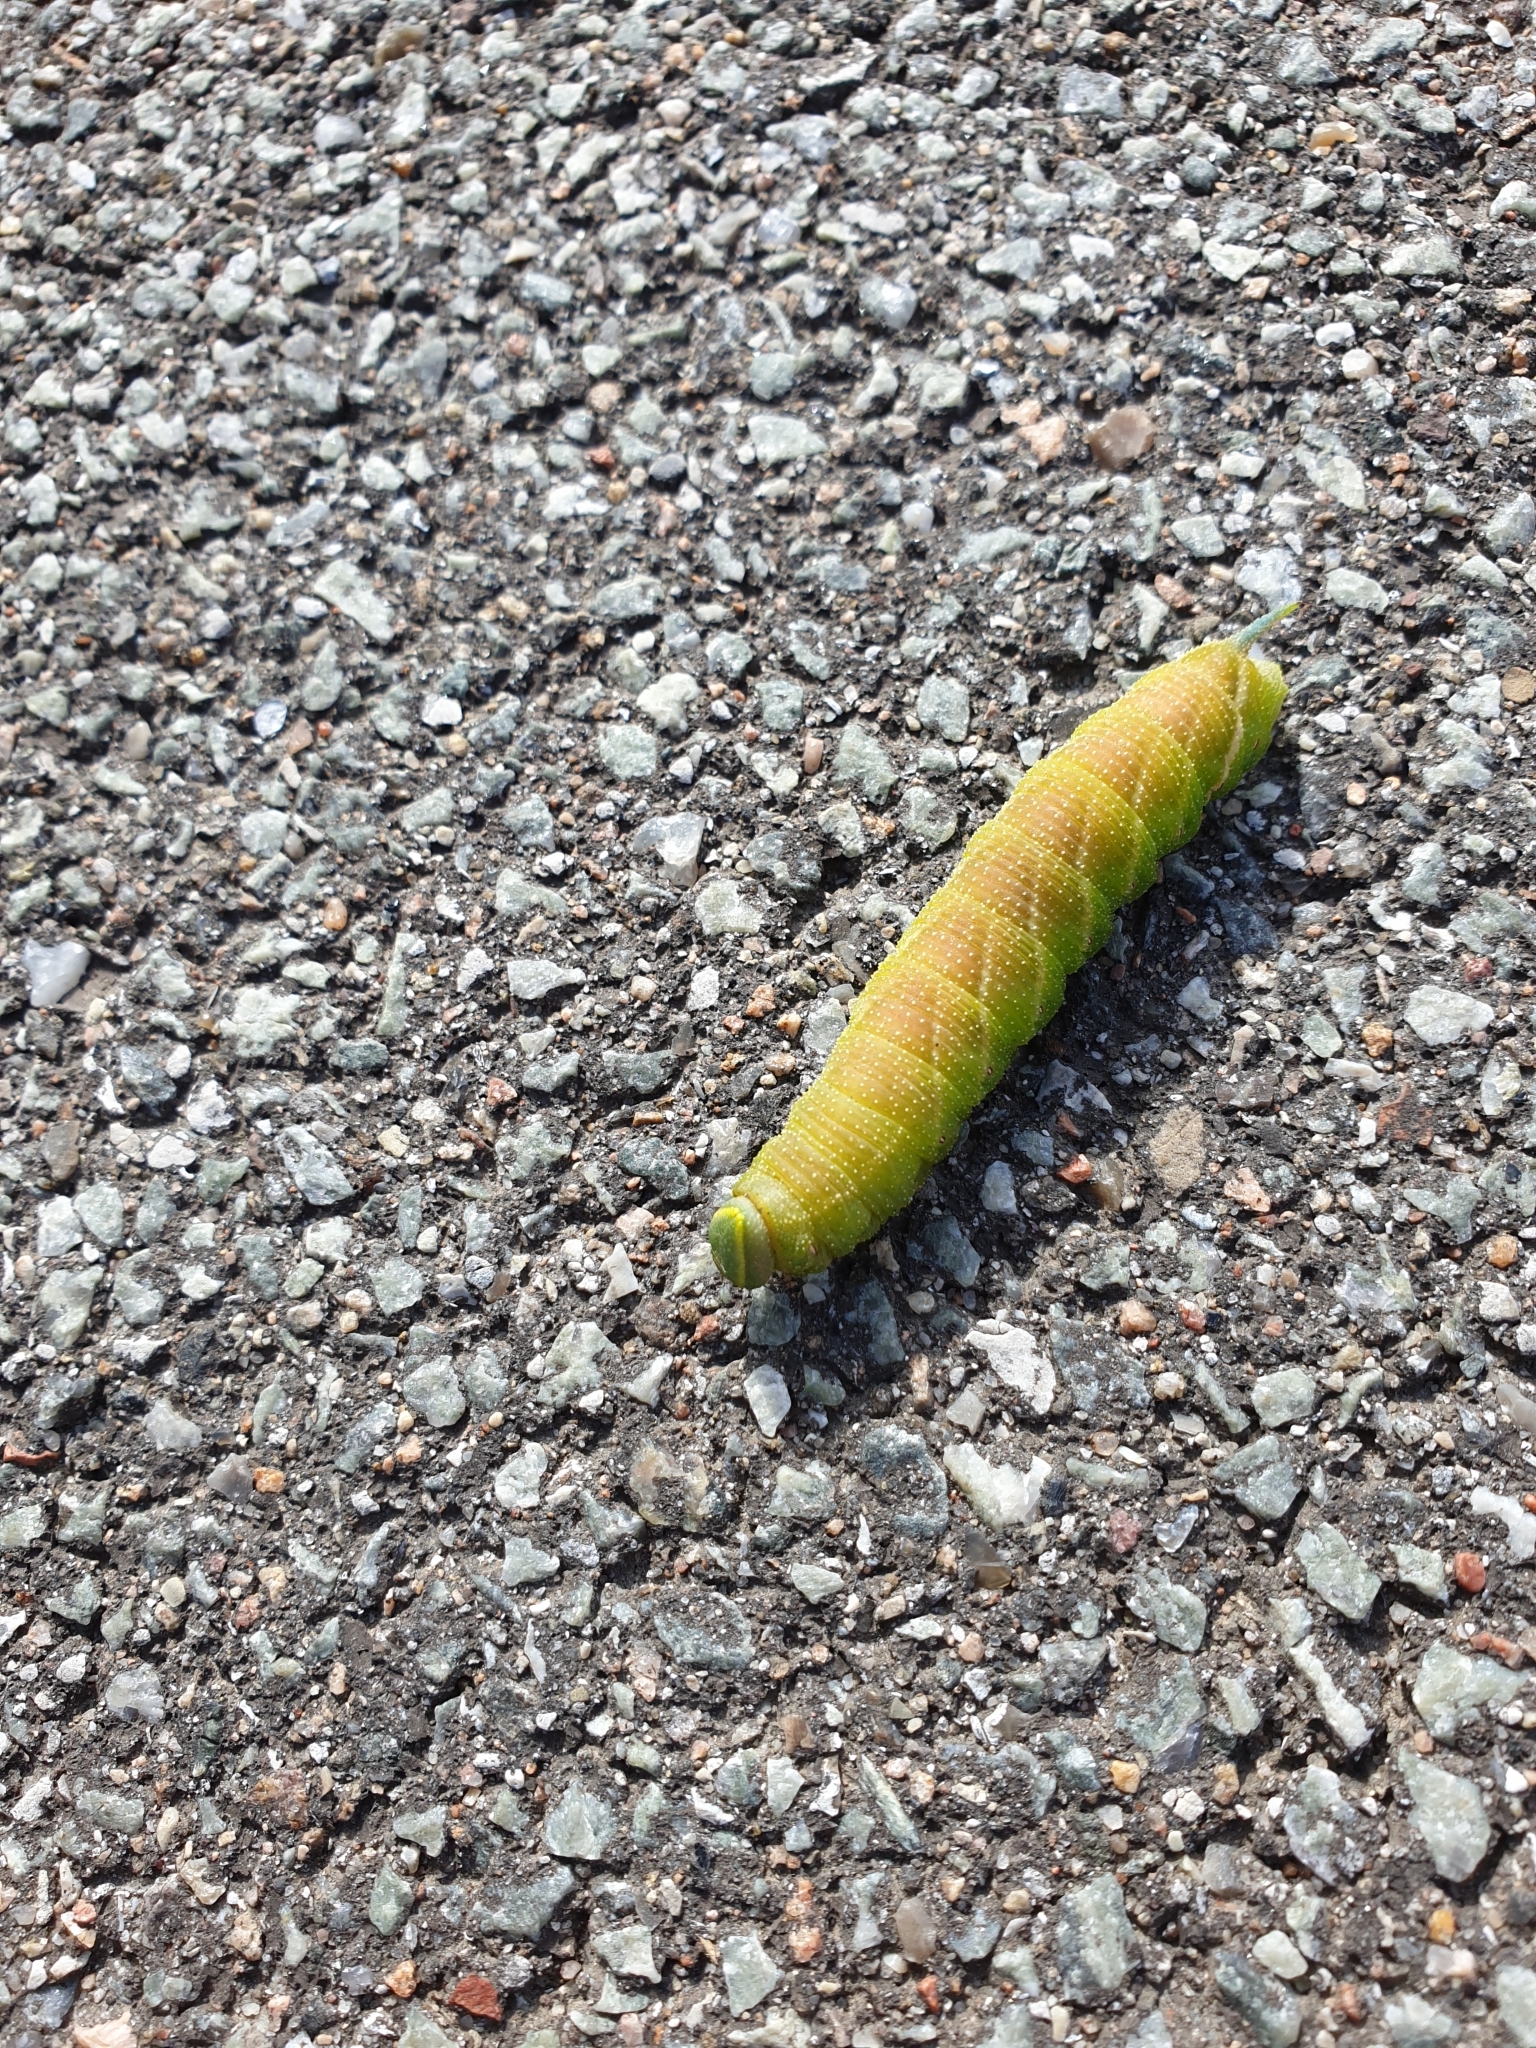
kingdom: Animalia
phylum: Arthropoda
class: Insecta
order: Lepidoptera
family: Sphingidae
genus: Smerinthus
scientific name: Smerinthus ocellata
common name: Eyed hawk-moth
